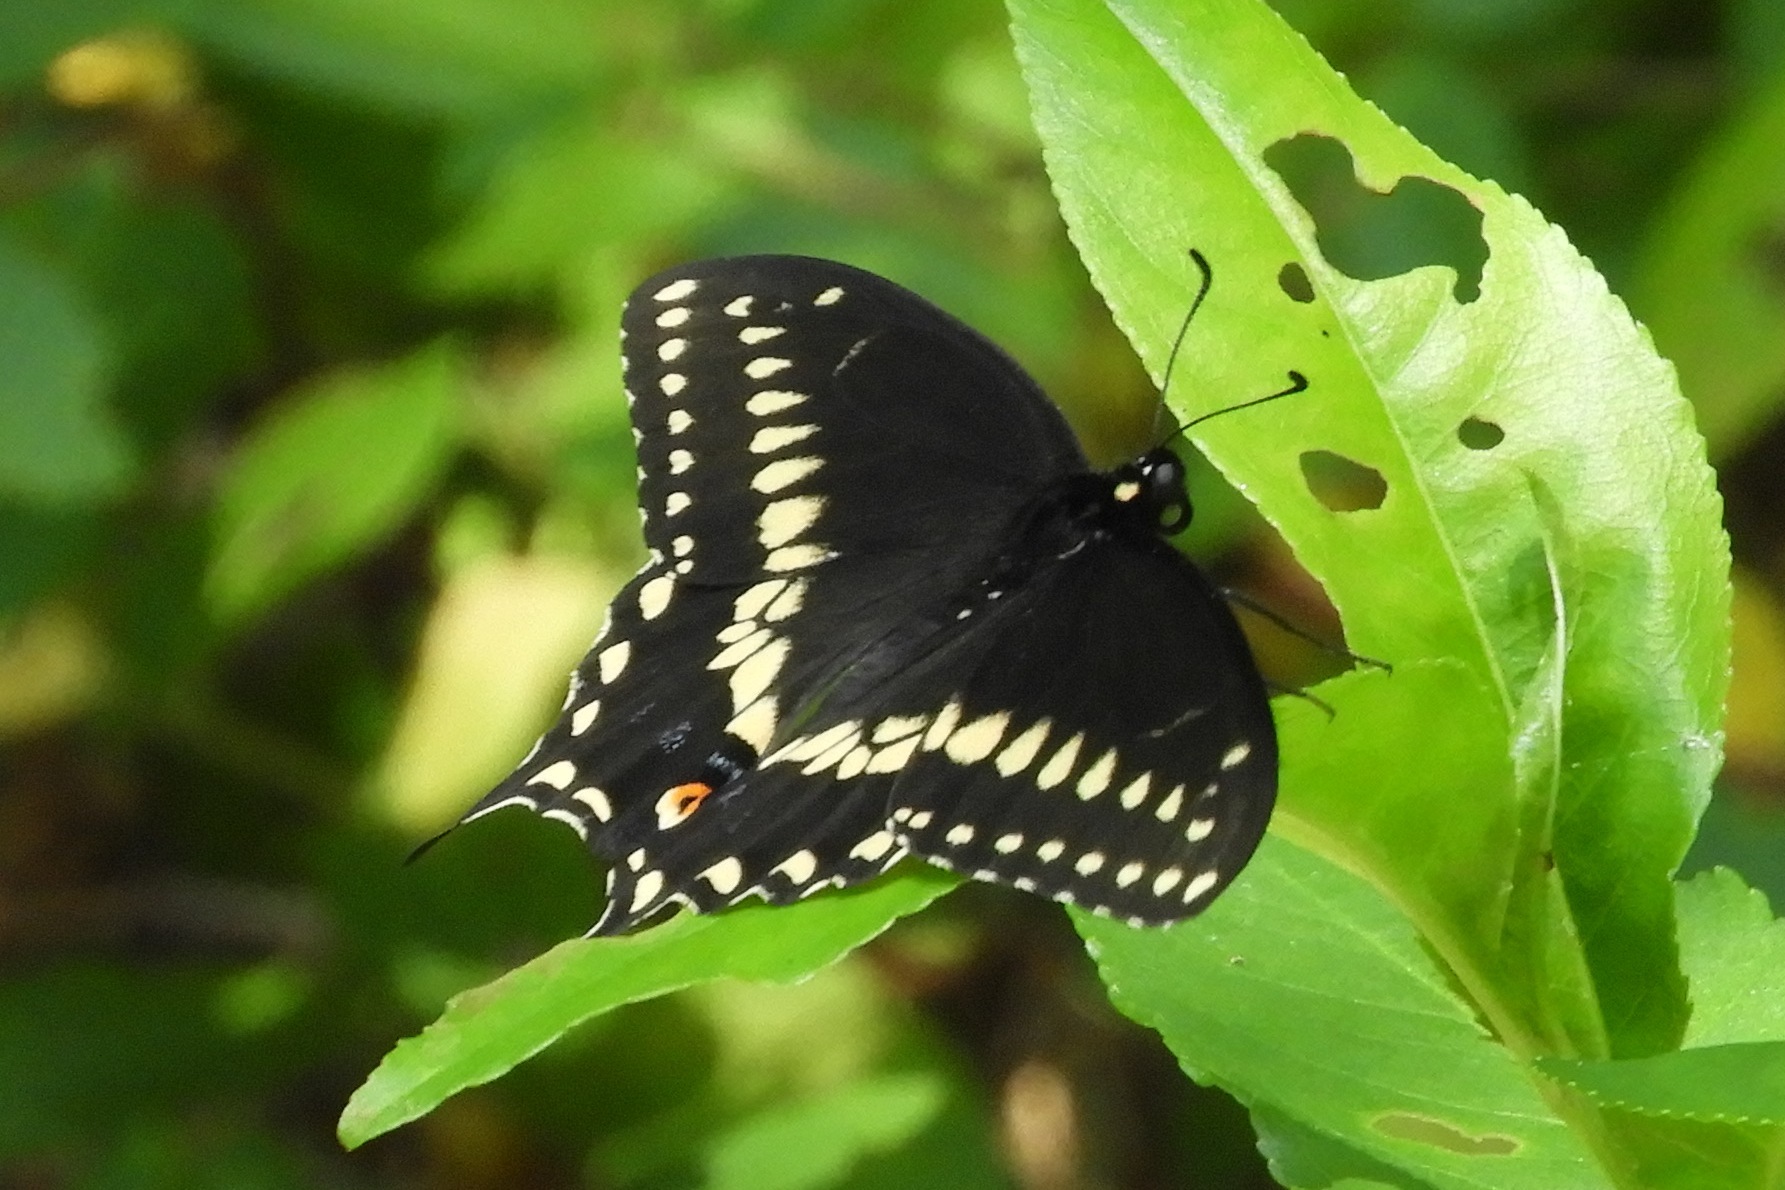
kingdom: Animalia
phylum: Arthropoda
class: Insecta
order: Lepidoptera
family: Papilionidae
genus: Papilio
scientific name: Papilio polyxenes
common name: Black swallowtail
